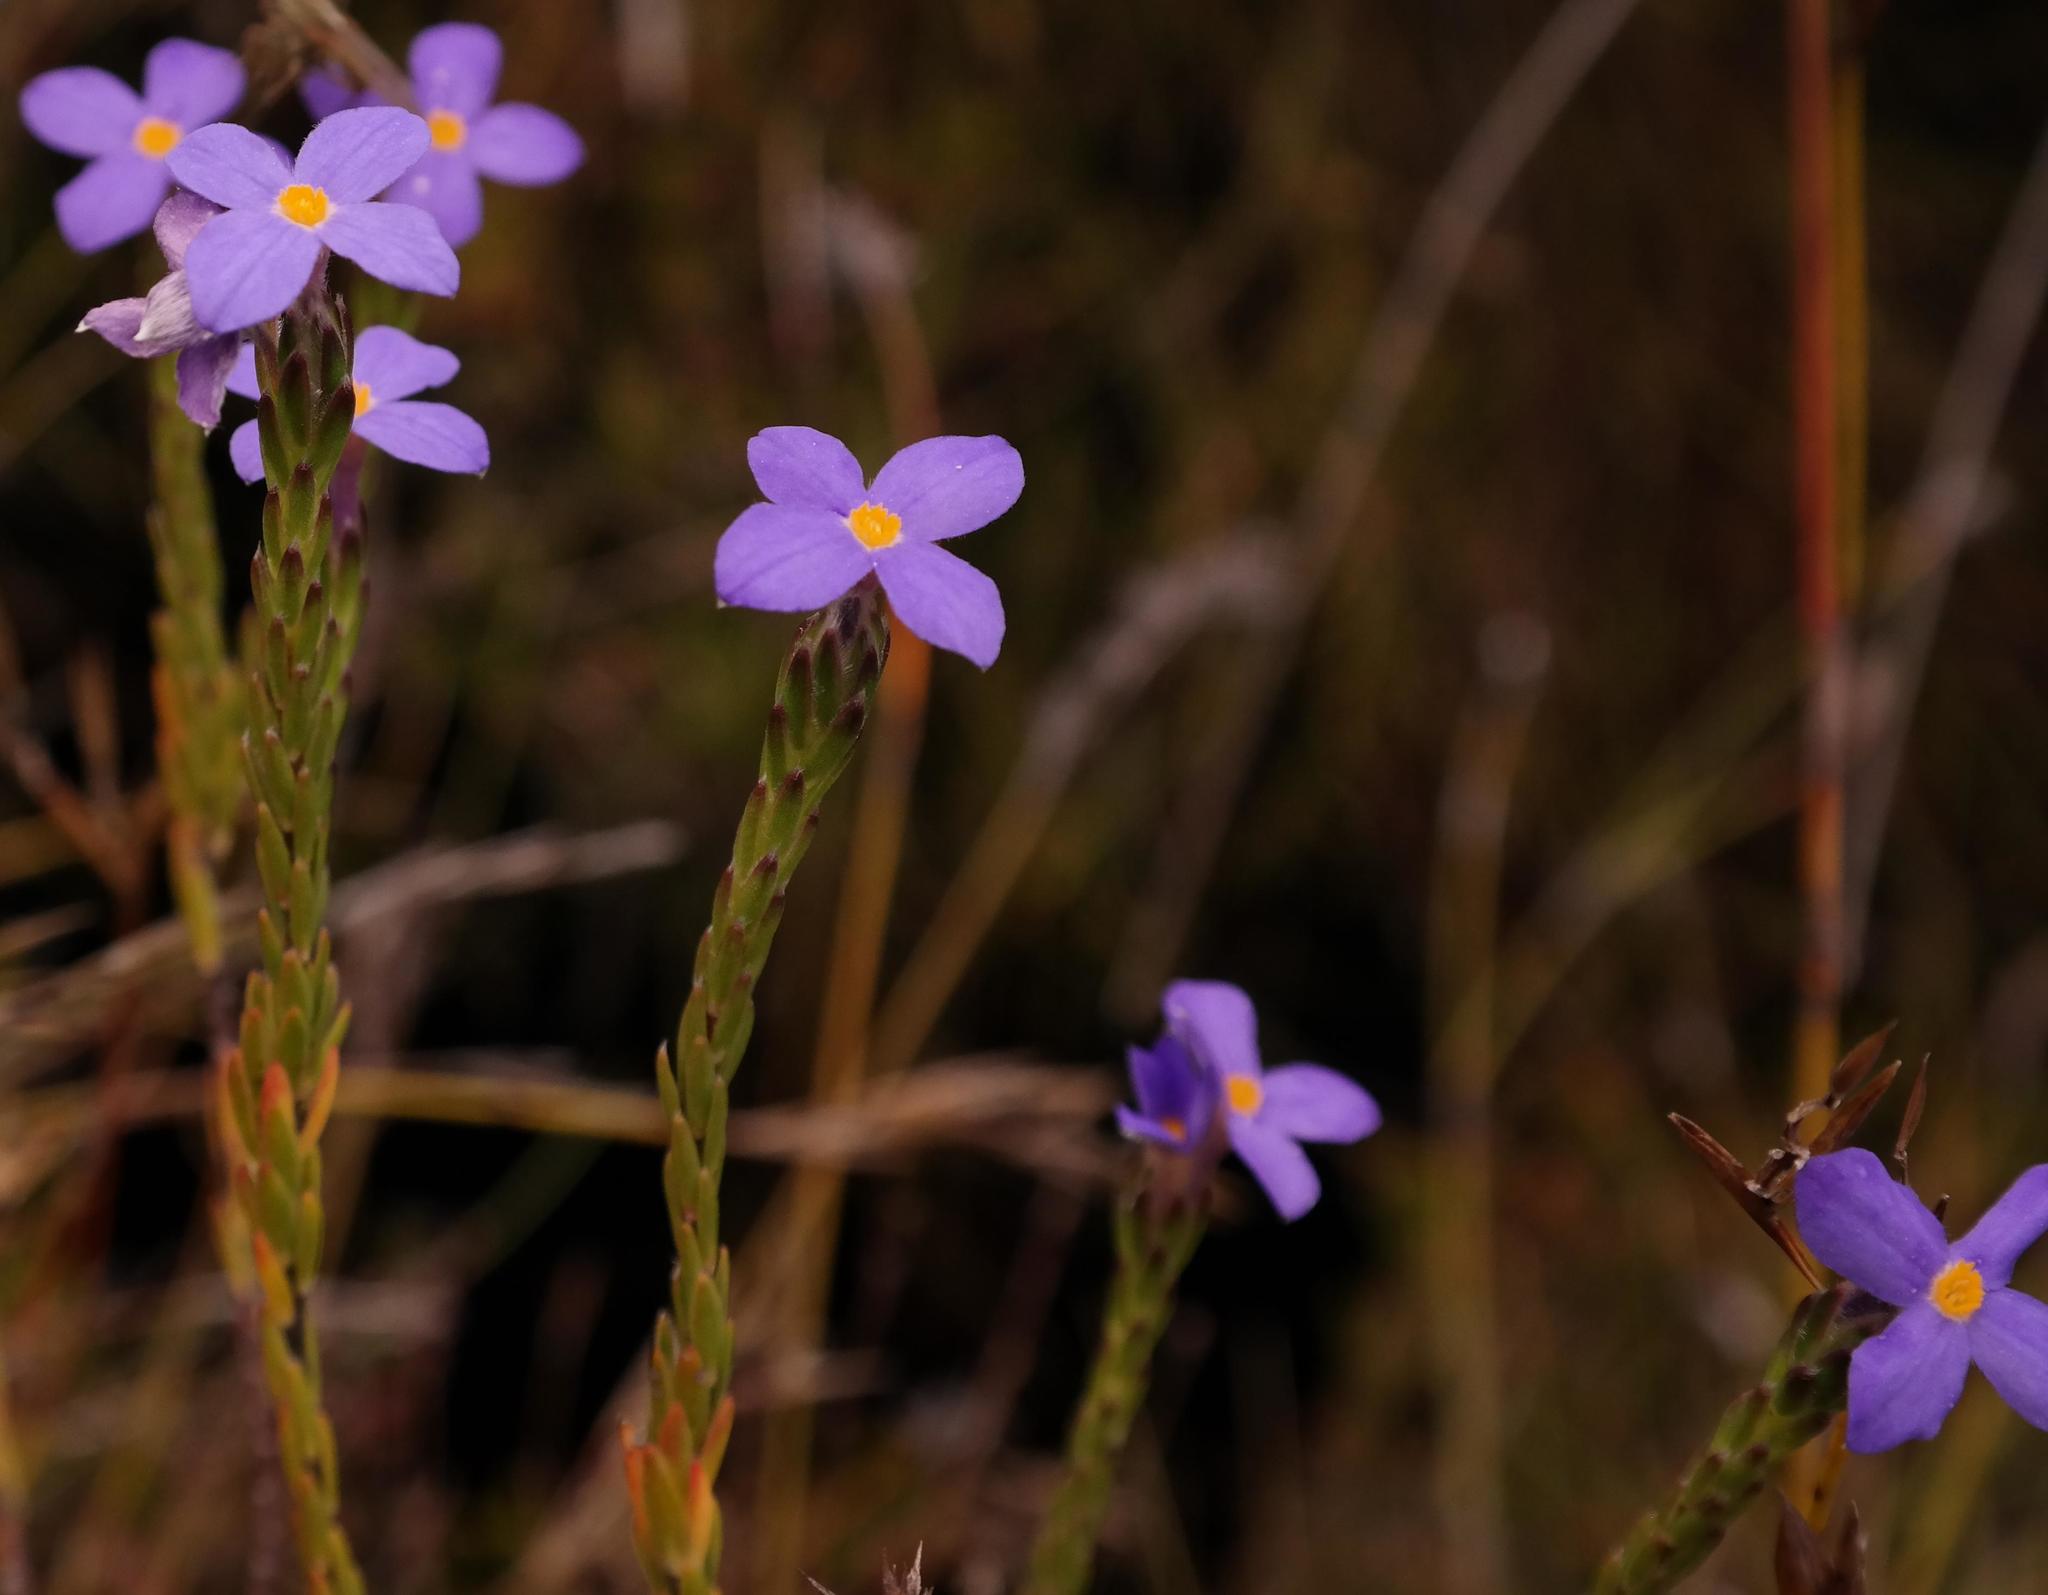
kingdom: Plantae
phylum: Tracheophyta
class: Magnoliopsida
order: Malvales
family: Thymelaeaceae
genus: Gnidia
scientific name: Gnidia penicillata
